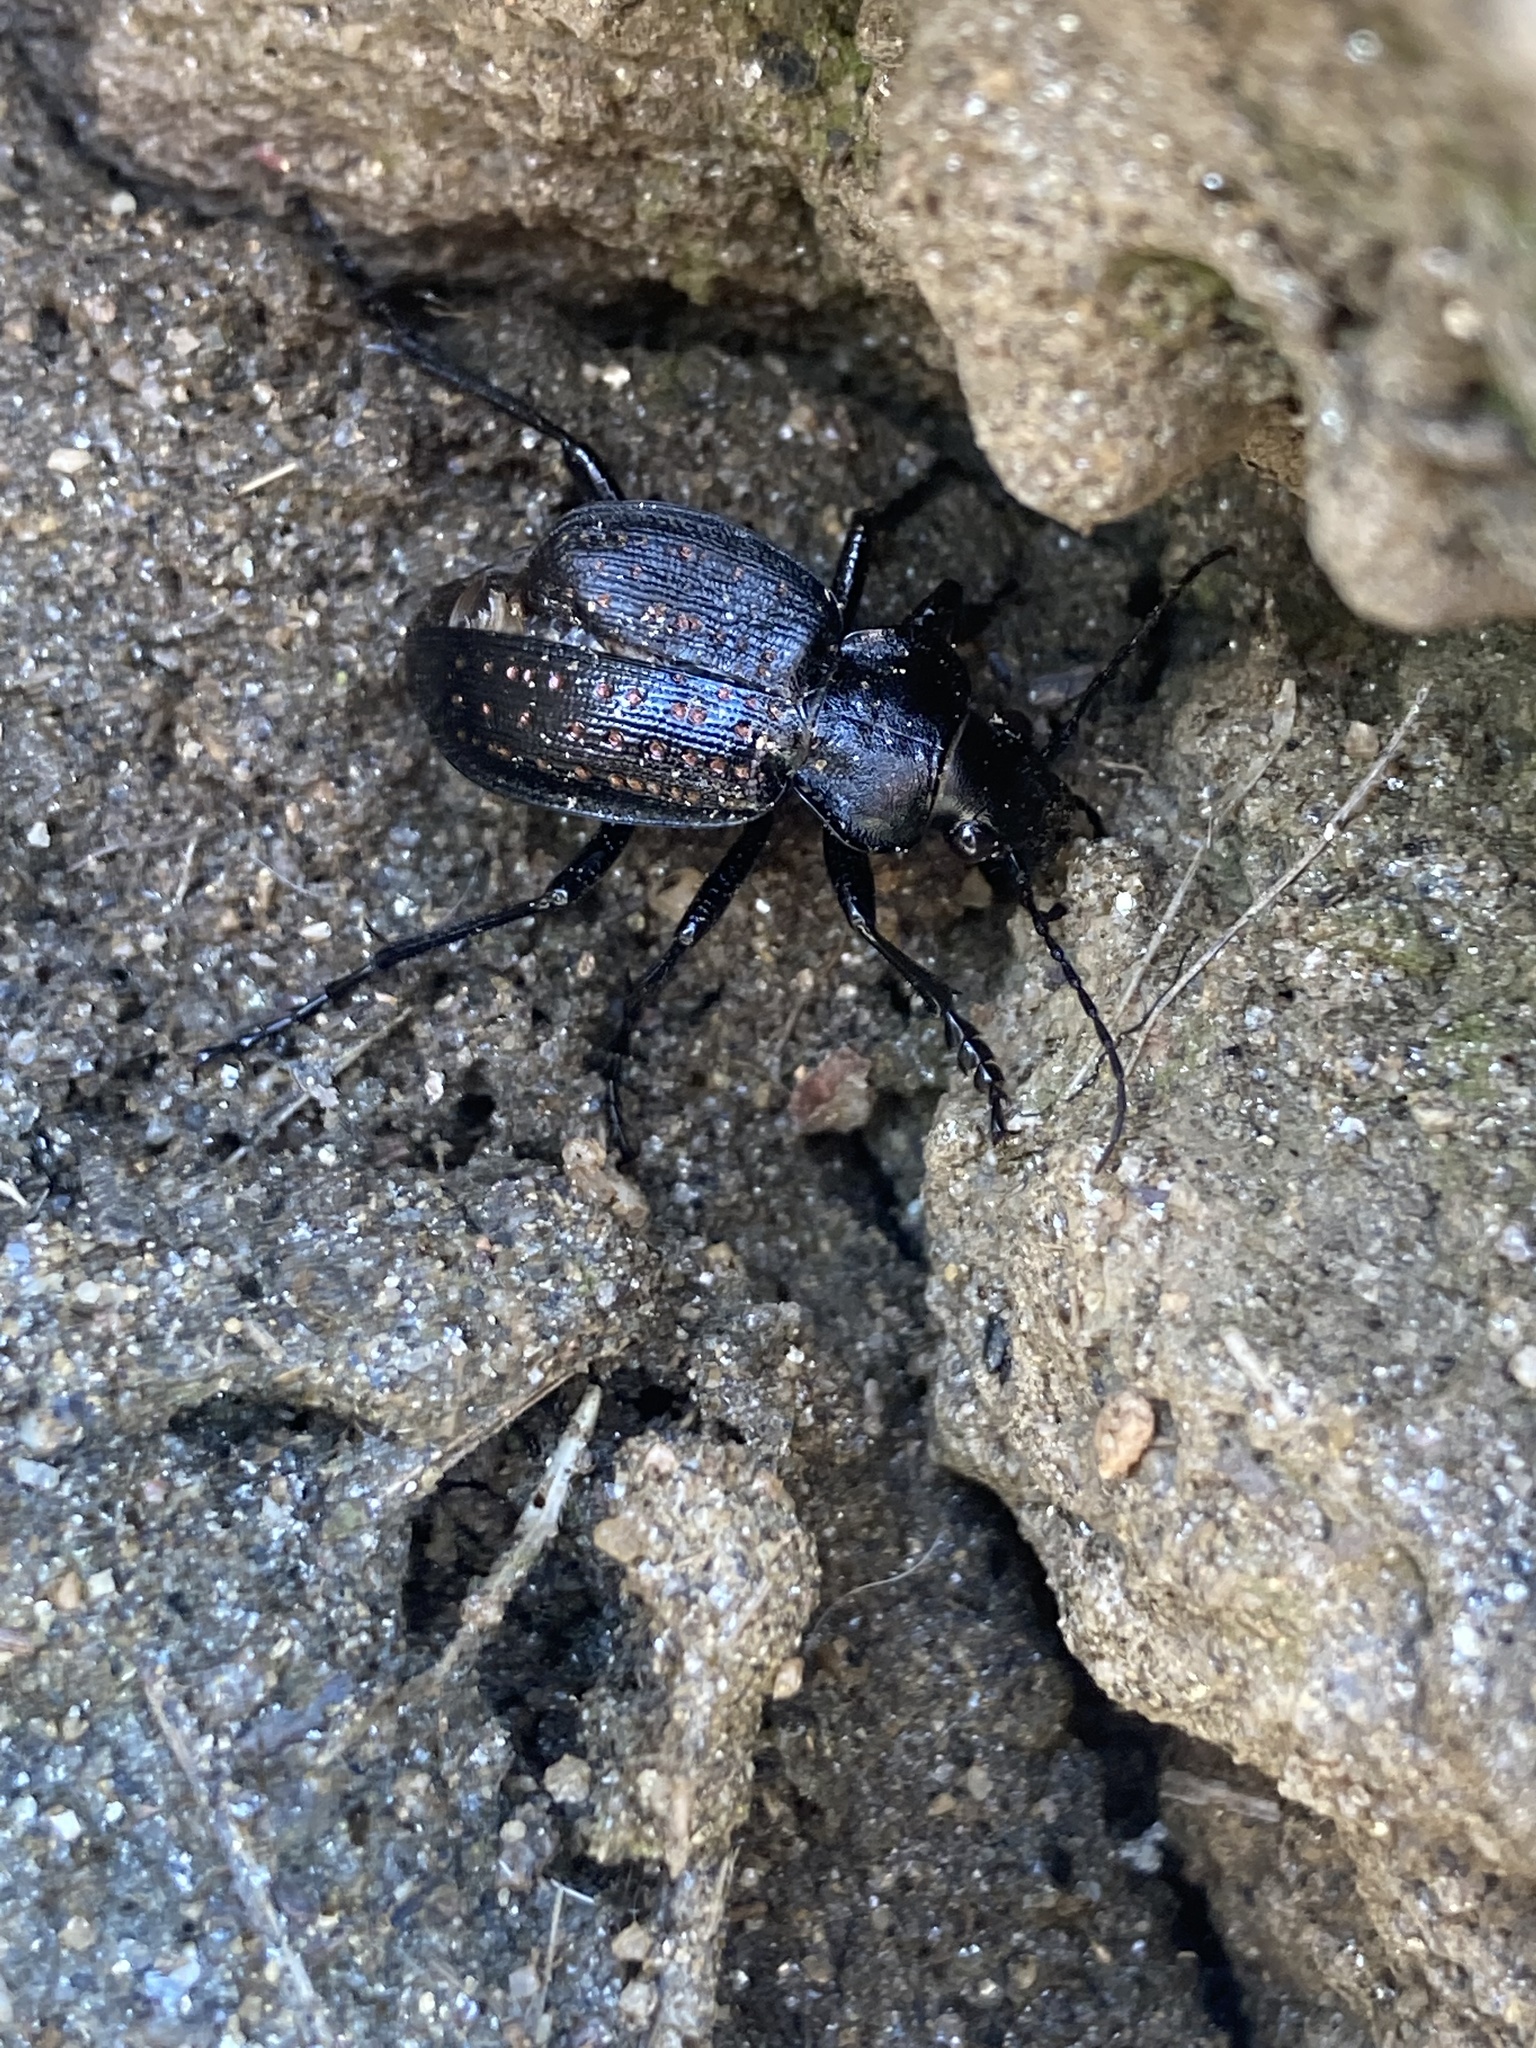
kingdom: Animalia
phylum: Arthropoda
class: Insecta
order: Coleoptera
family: Carabidae
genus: Calosoma
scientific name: Calosoma calidum
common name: Fiery hunter
